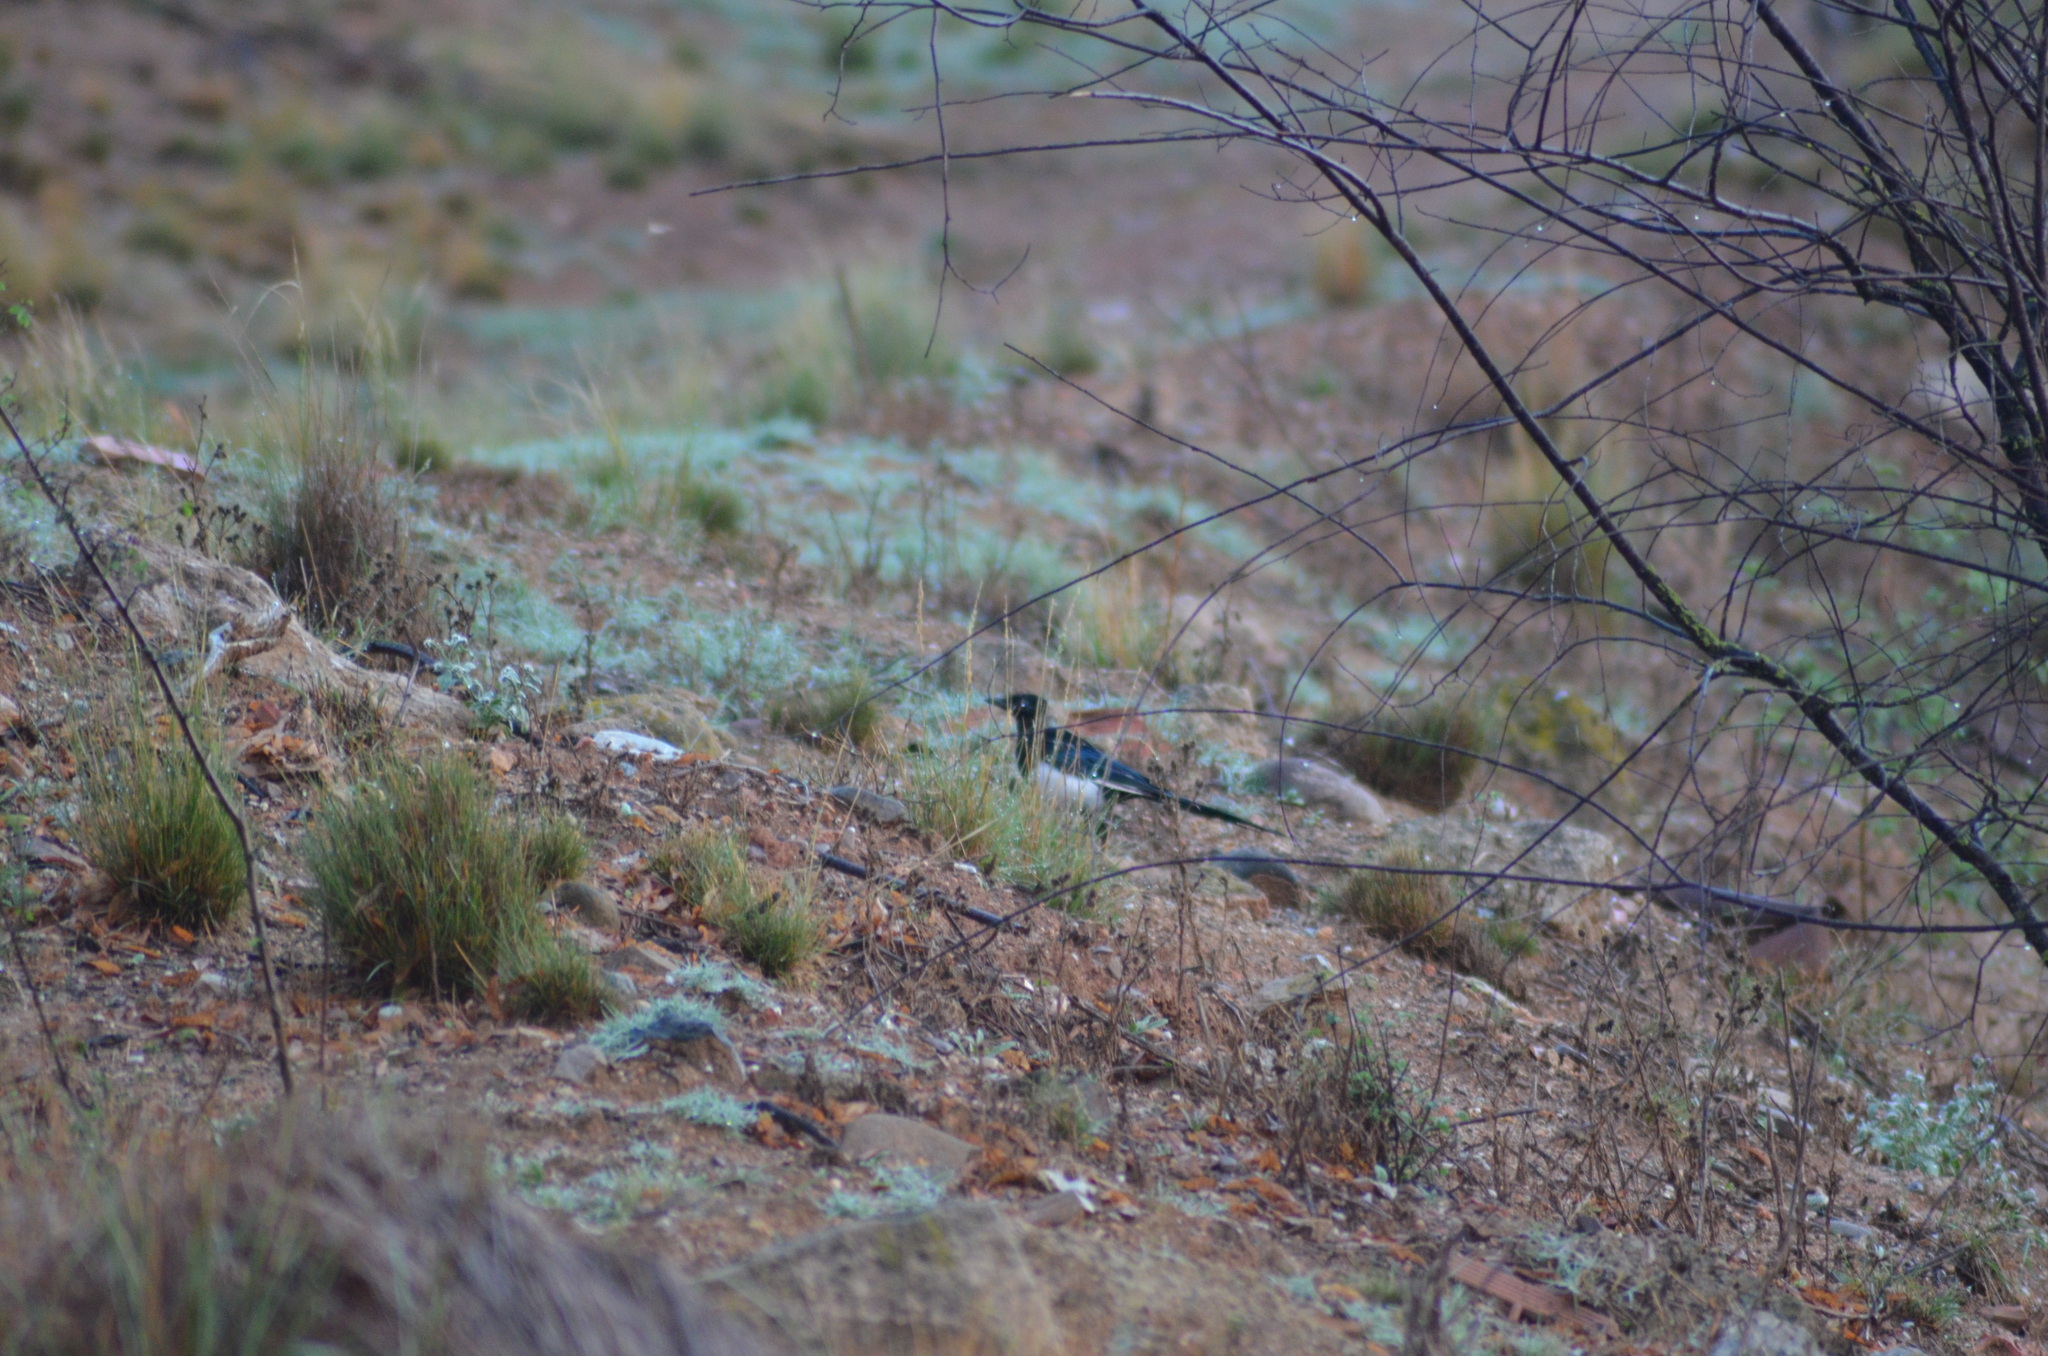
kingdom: Animalia
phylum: Chordata
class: Aves
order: Passeriformes
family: Corvidae
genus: Pica
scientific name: Pica pica
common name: Eurasian magpie
